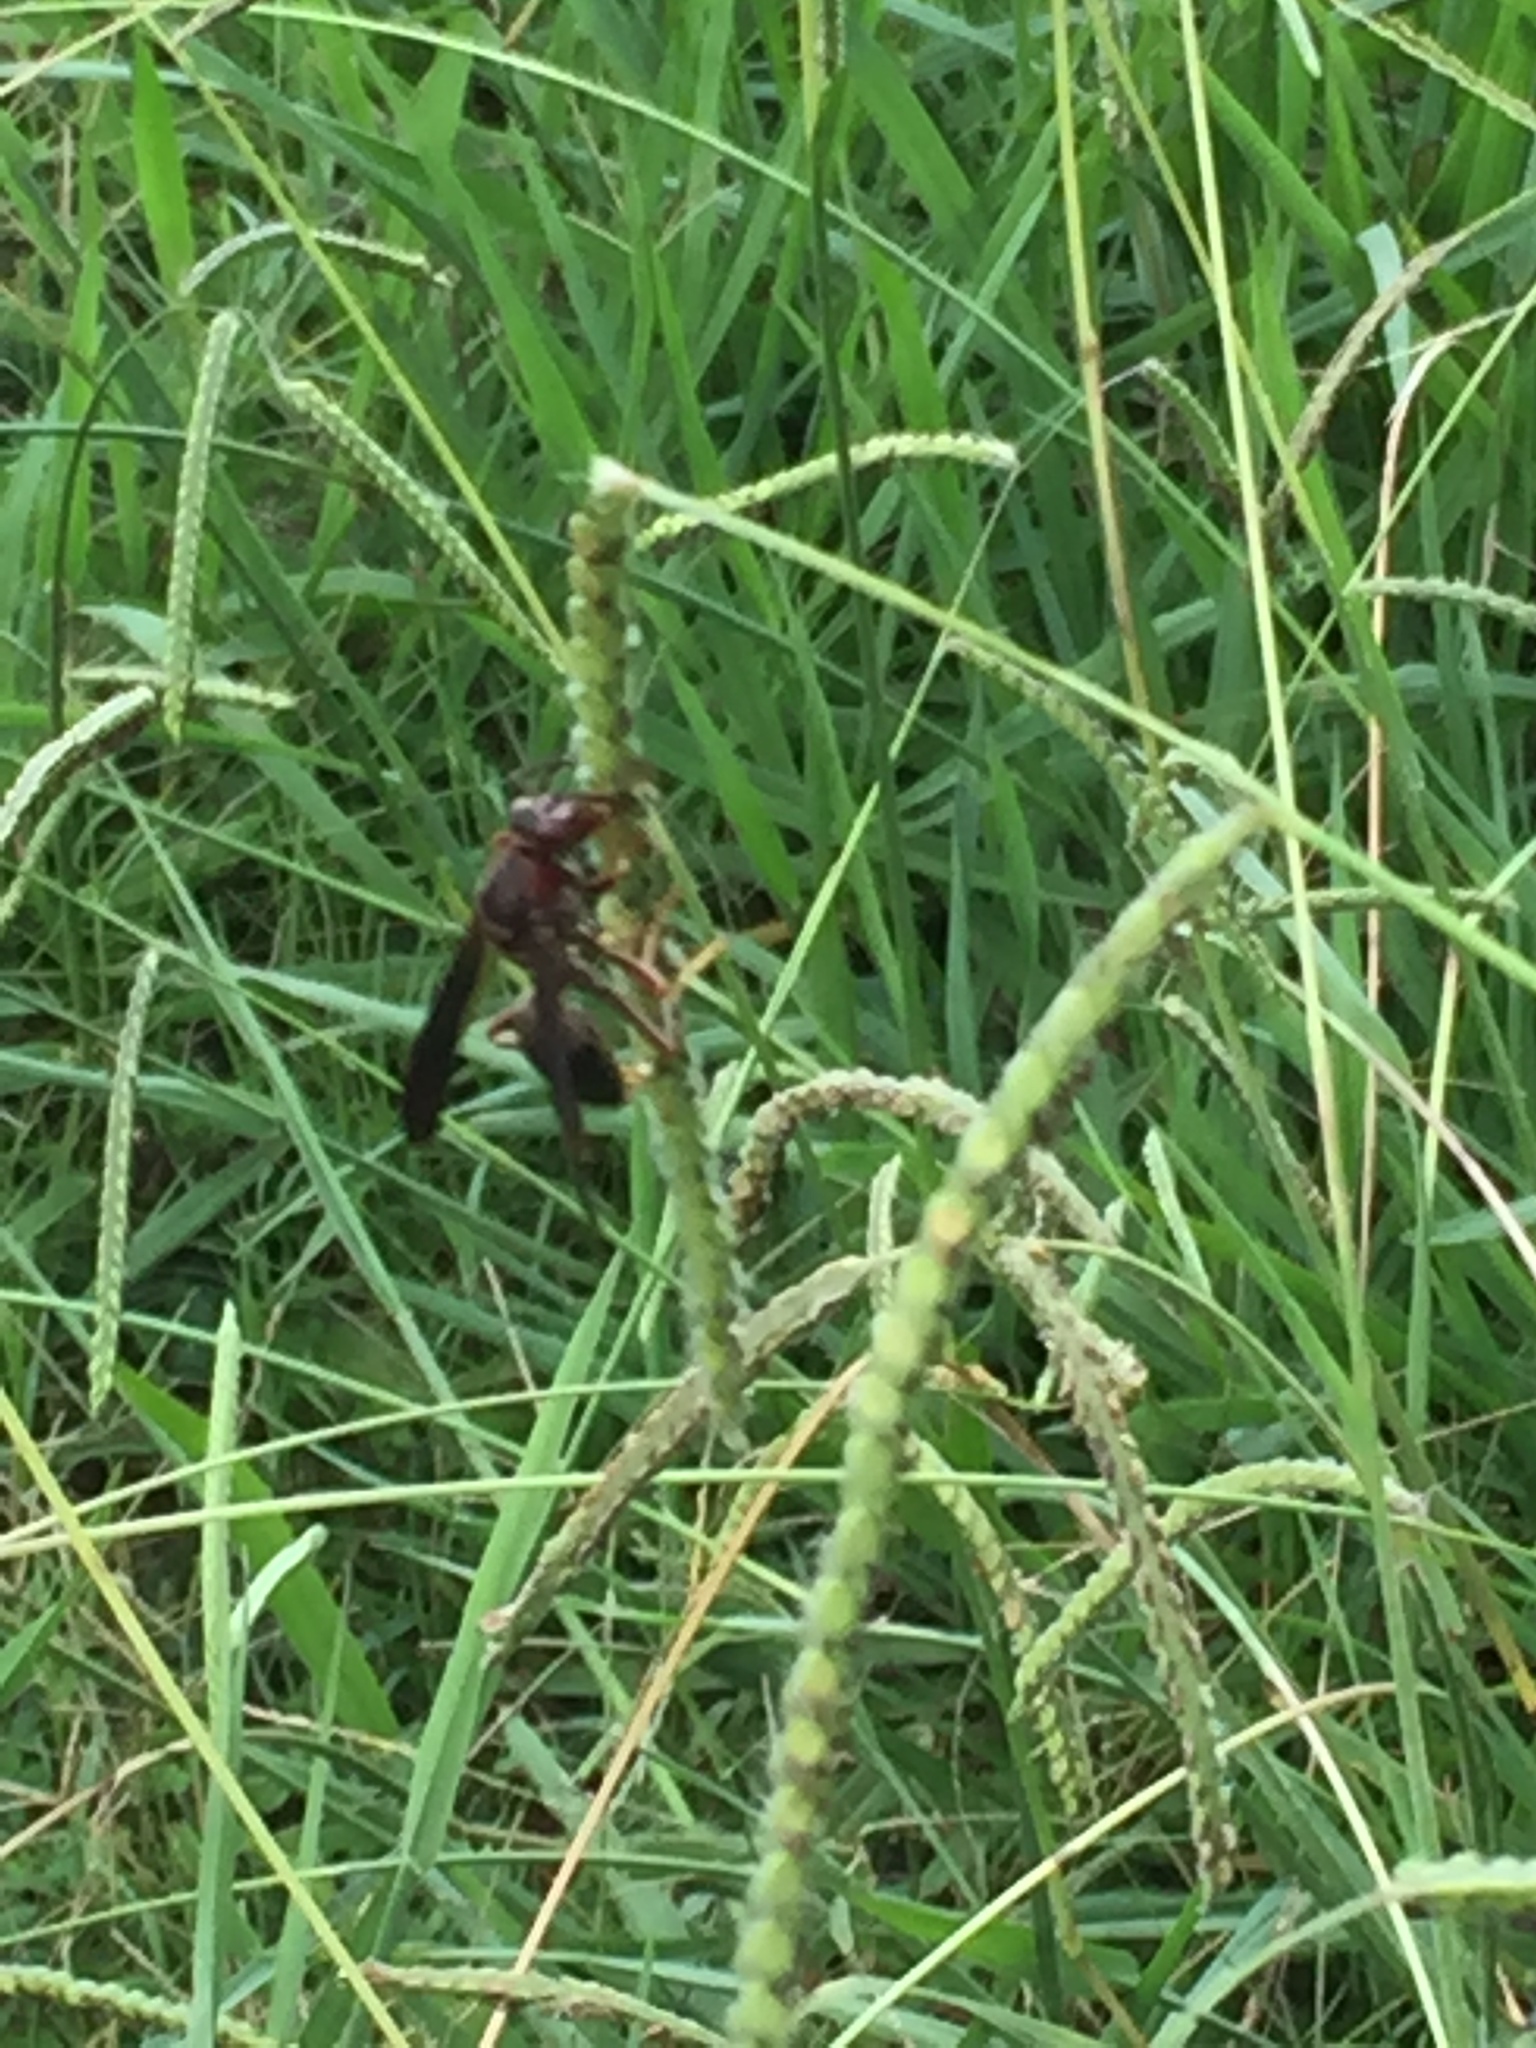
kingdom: Animalia
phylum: Arthropoda
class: Insecta
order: Hymenoptera
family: Eumenidae
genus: Polistes
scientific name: Polistes metricus
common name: Metric paper wasp
